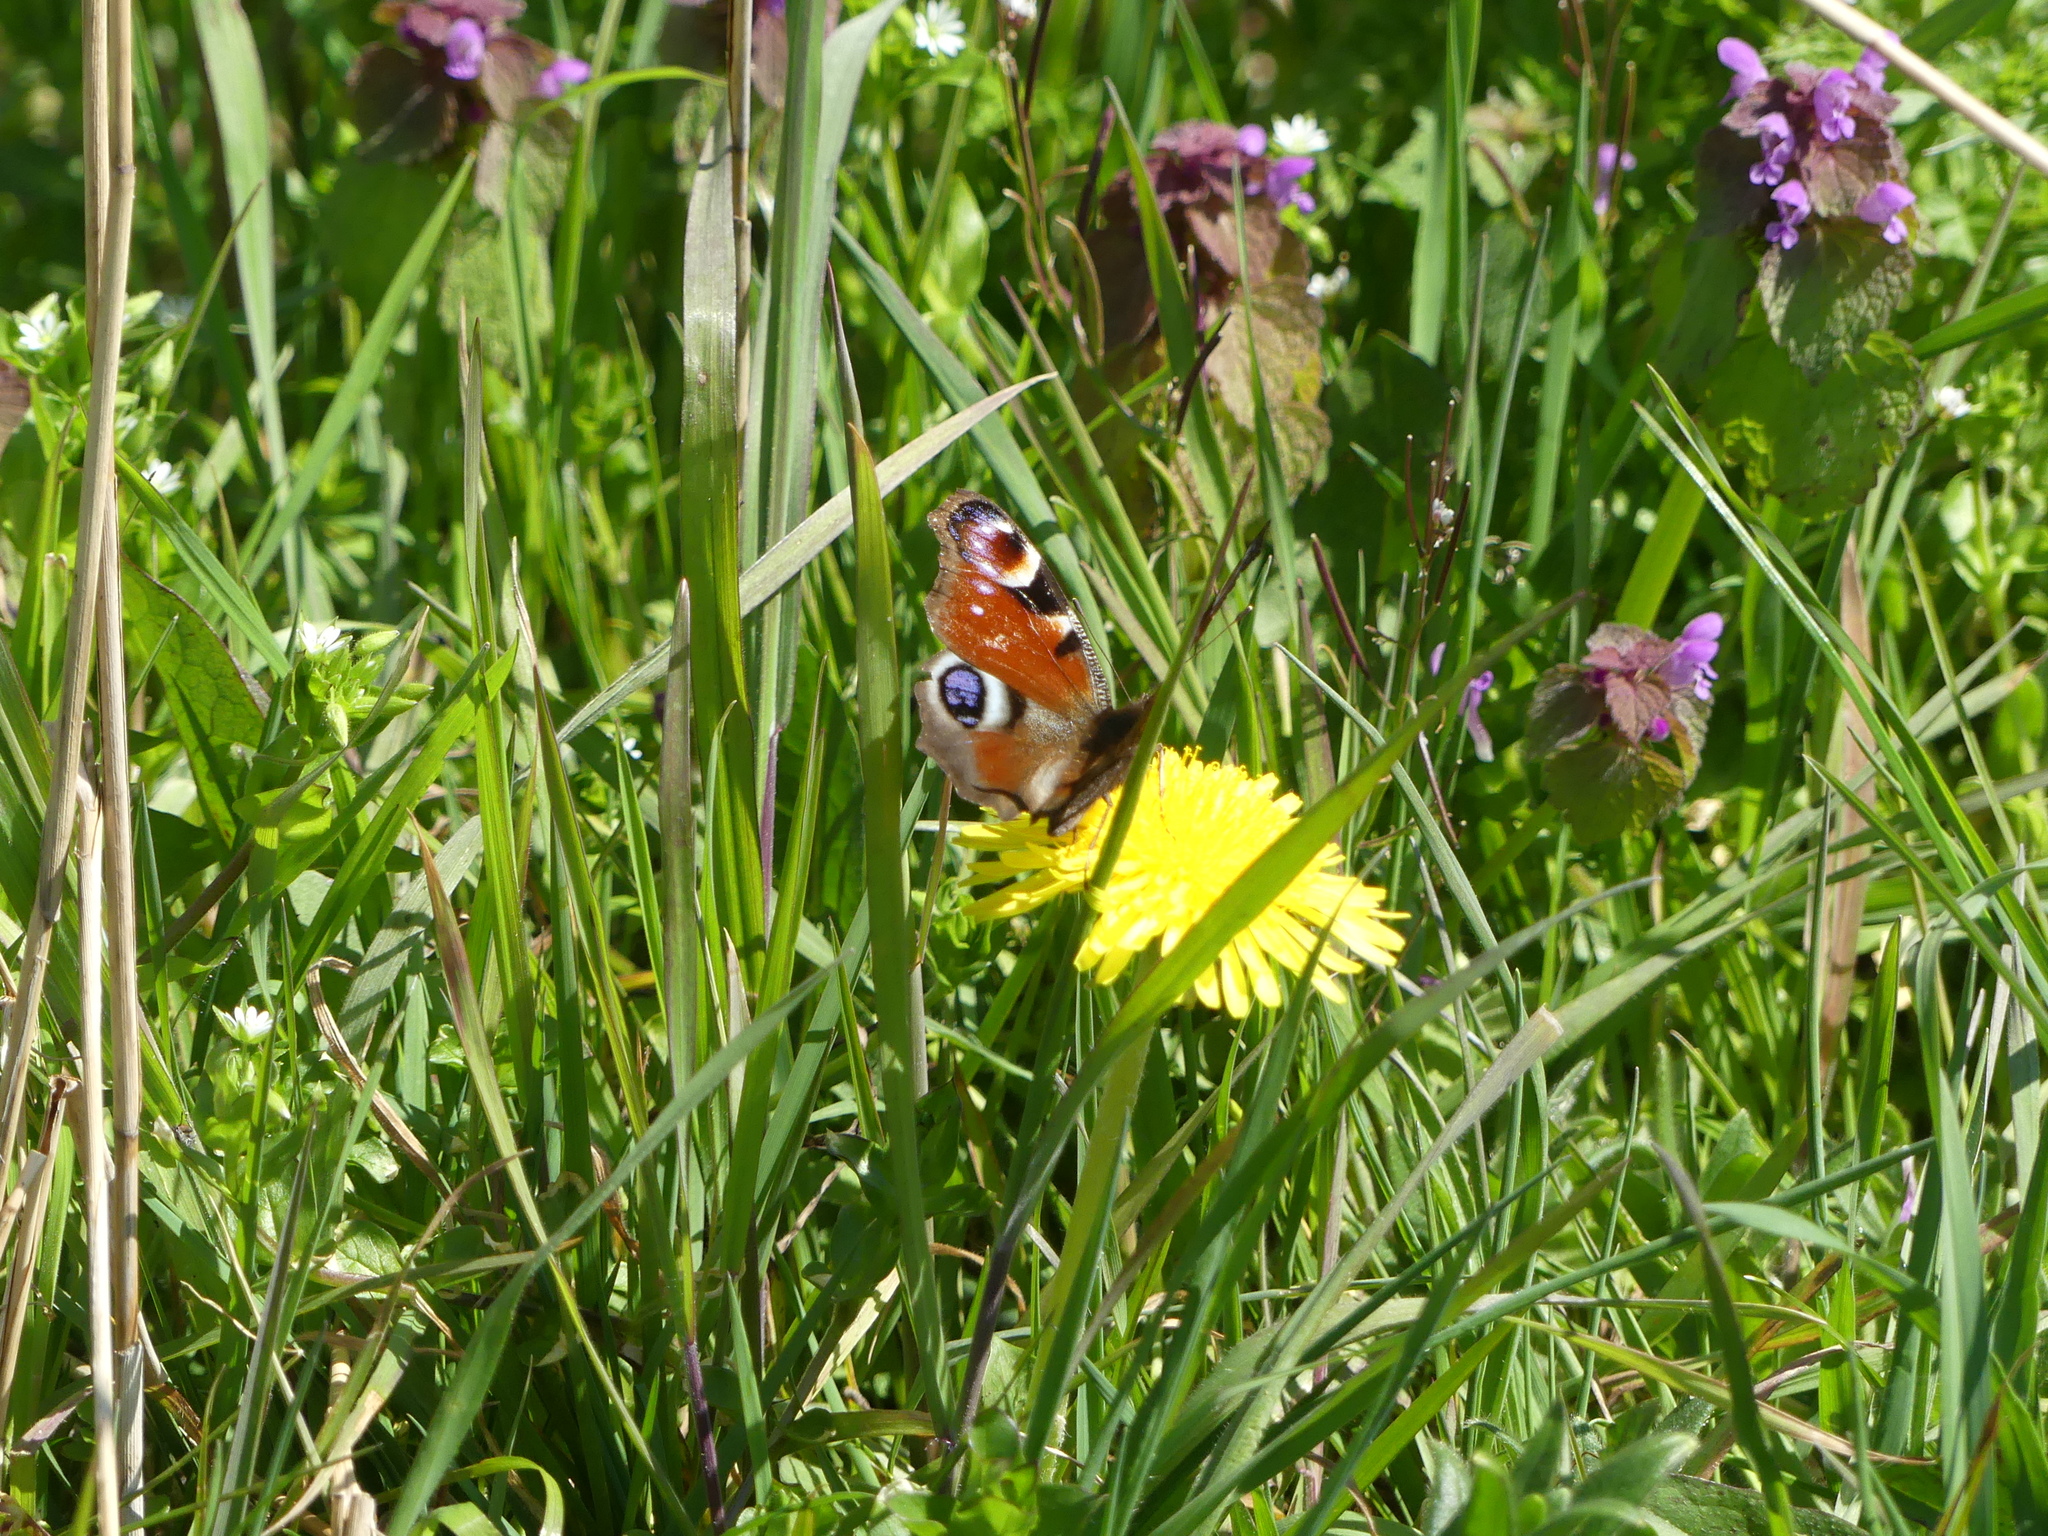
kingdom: Animalia
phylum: Arthropoda
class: Insecta
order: Lepidoptera
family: Nymphalidae
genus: Aglais
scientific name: Aglais io
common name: Peacock
